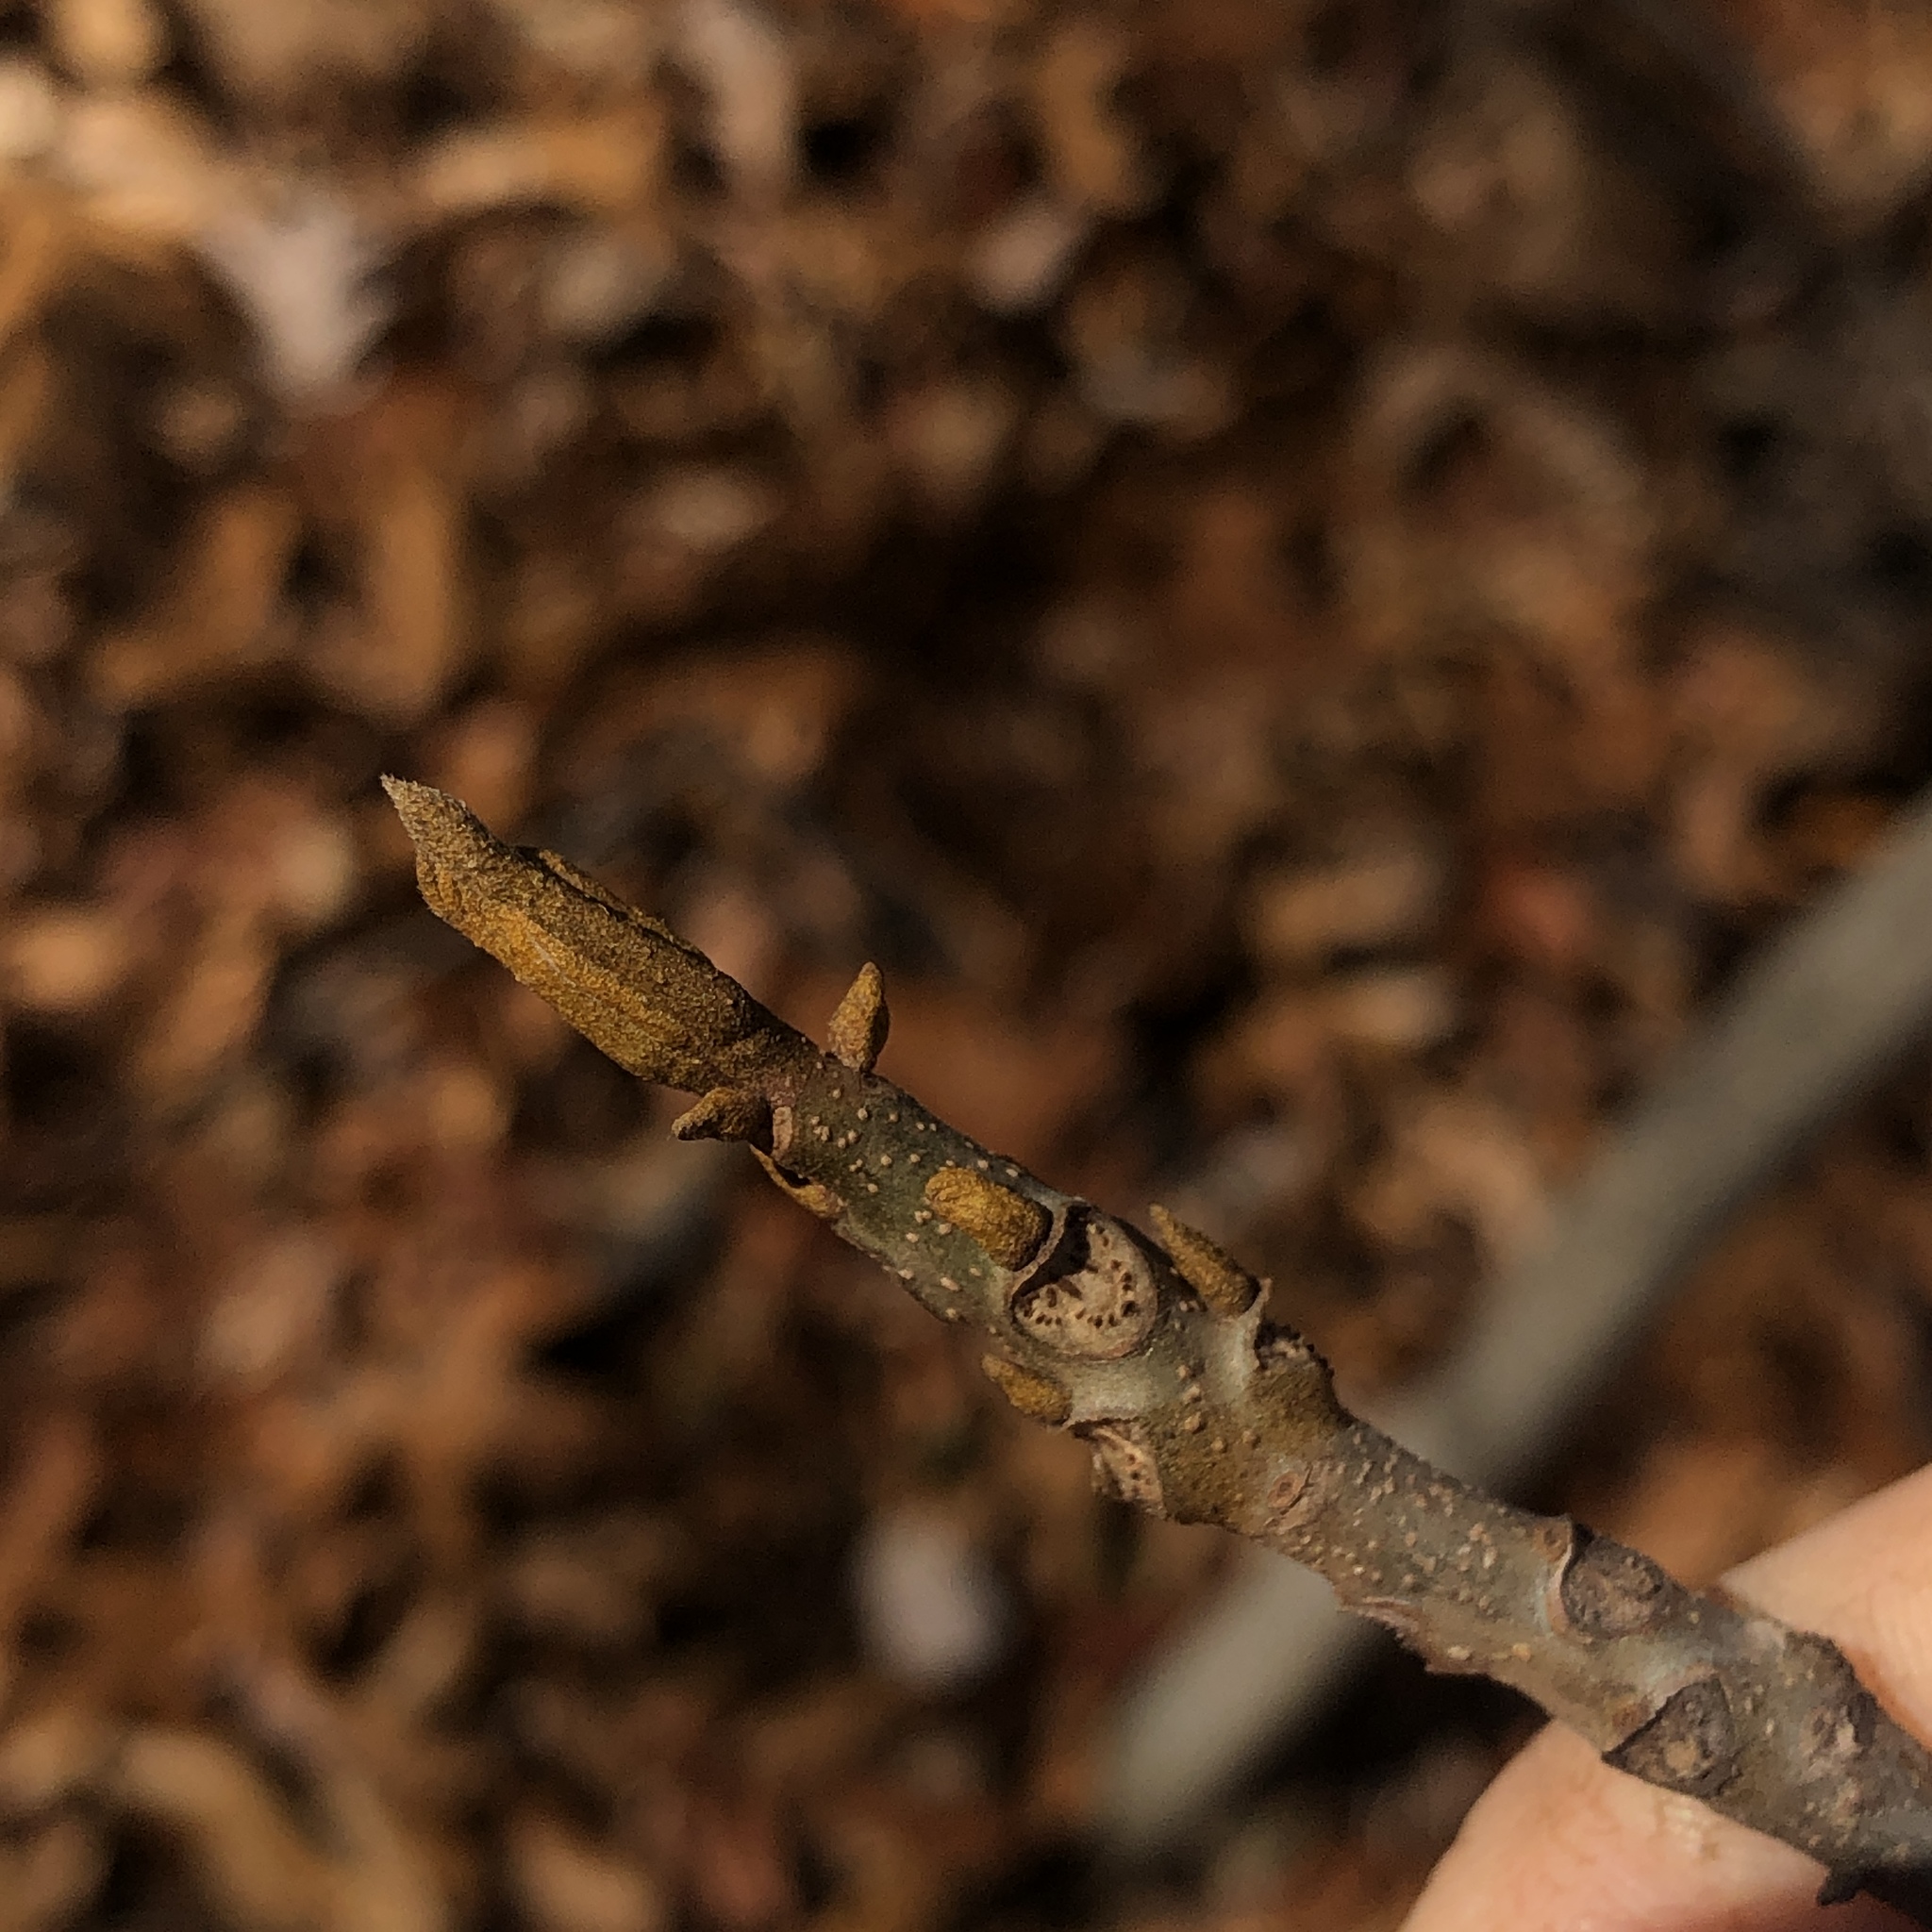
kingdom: Plantae
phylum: Tracheophyta
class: Magnoliopsida
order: Fagales
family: Juglandaceae
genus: Carya
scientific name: Carya cordiformis
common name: Bitternut hickory
